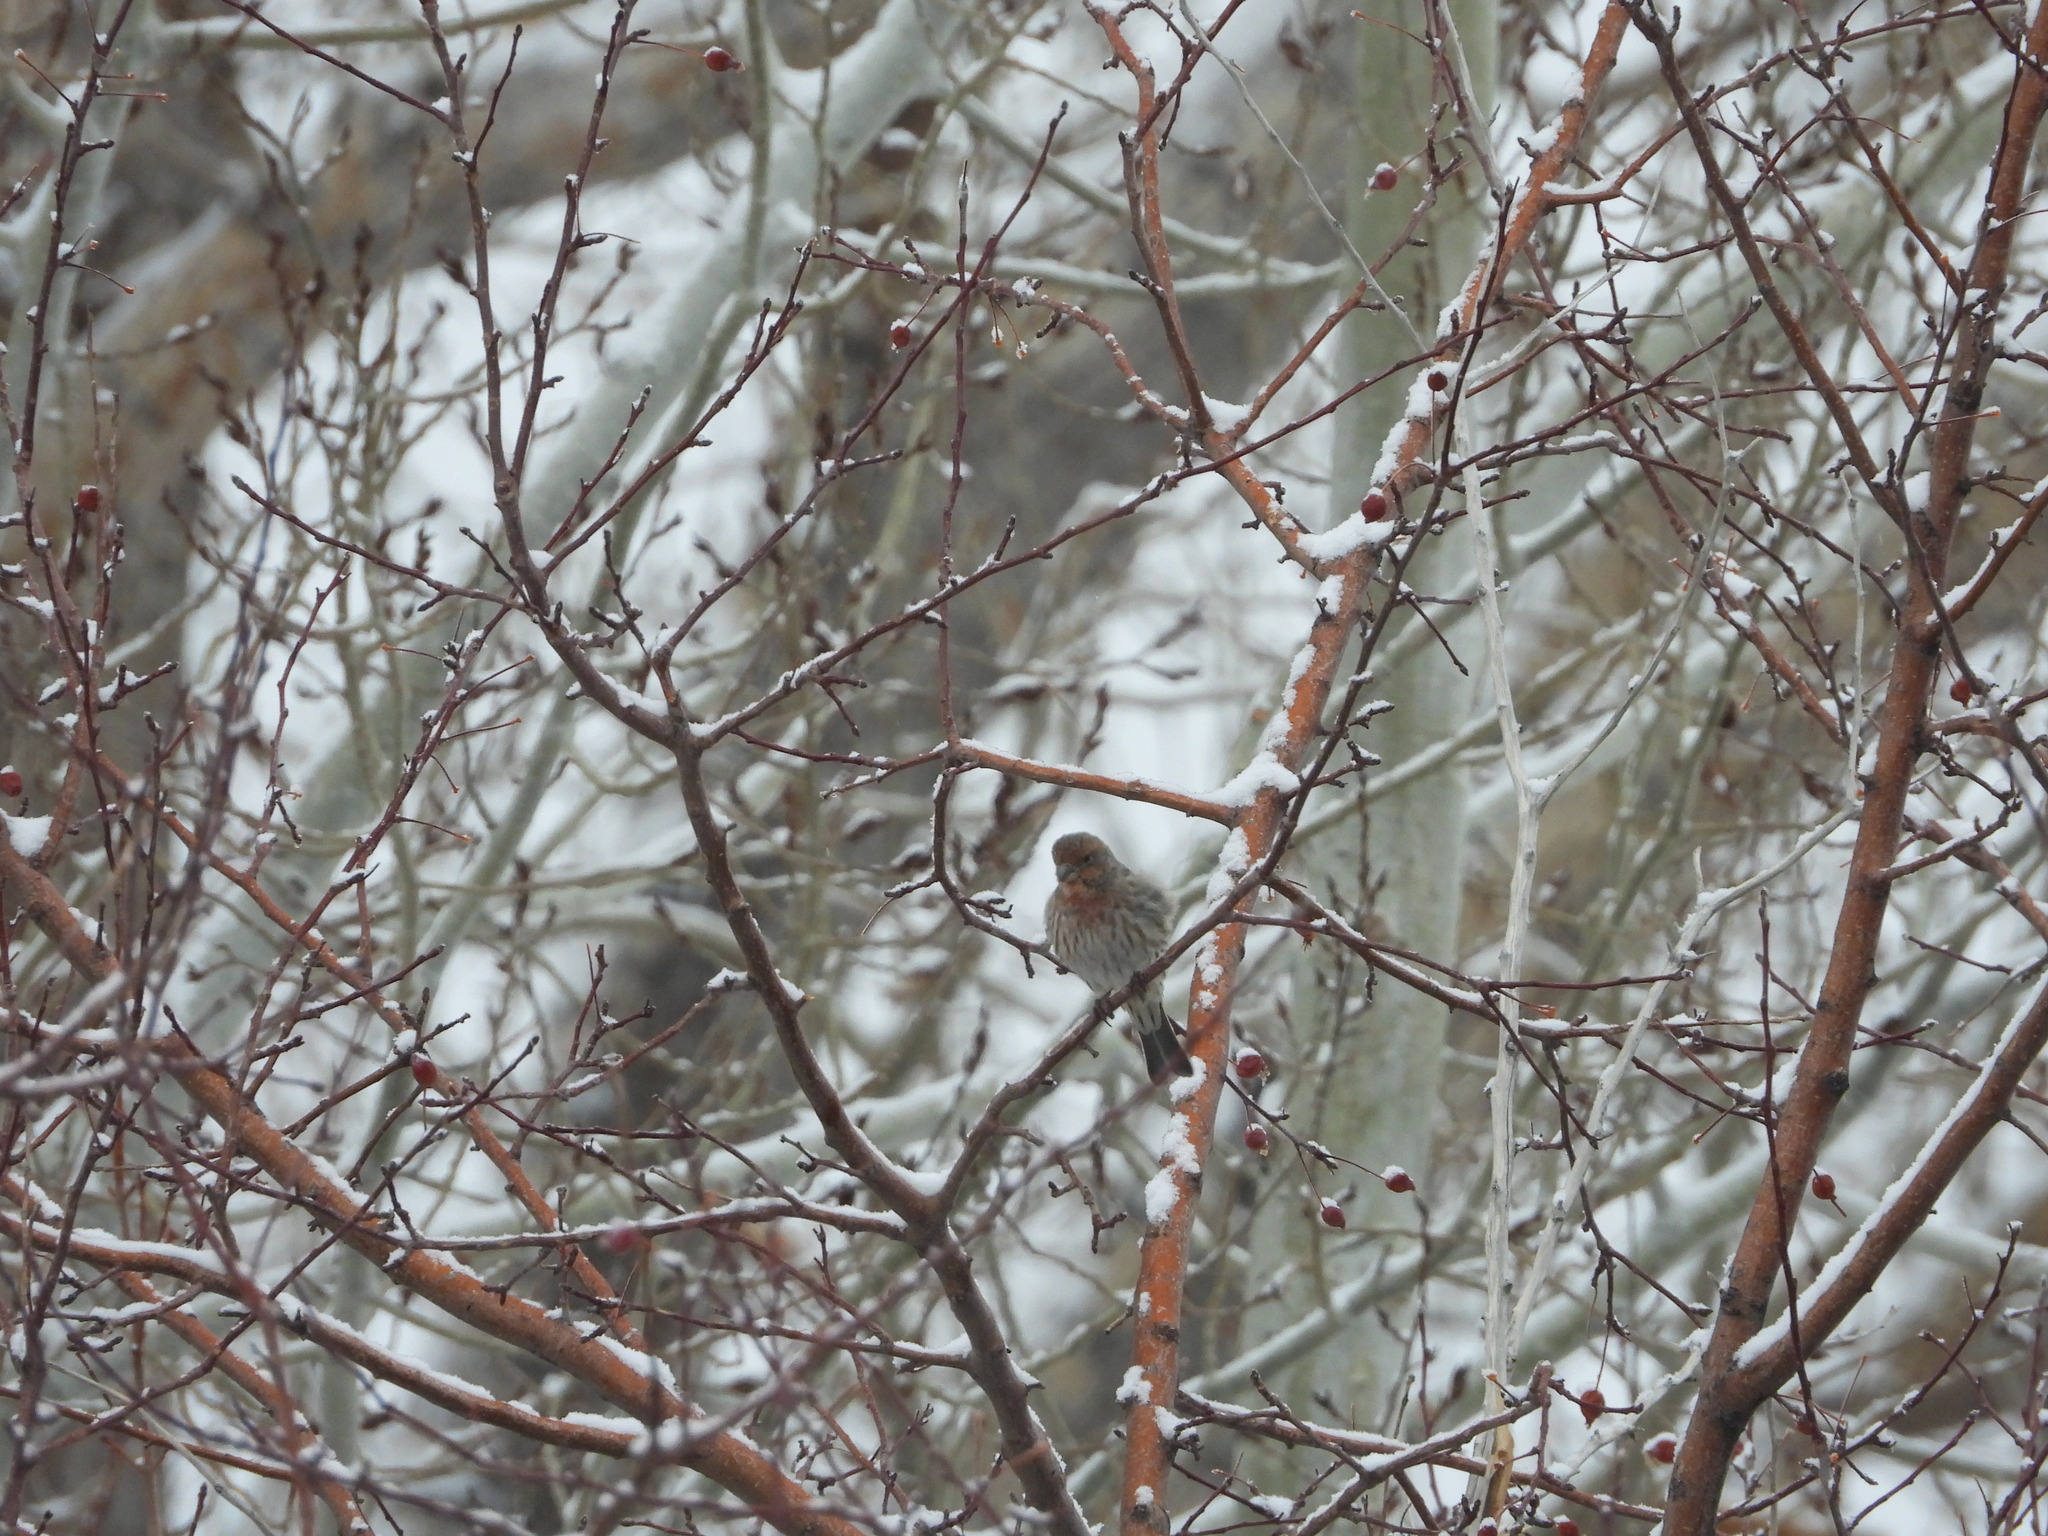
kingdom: Animalia
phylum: Chordata
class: Aves
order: Passeriformes
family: Fringillidae
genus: Haemorhous
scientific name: Haemorhous mexicanus
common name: House finch
